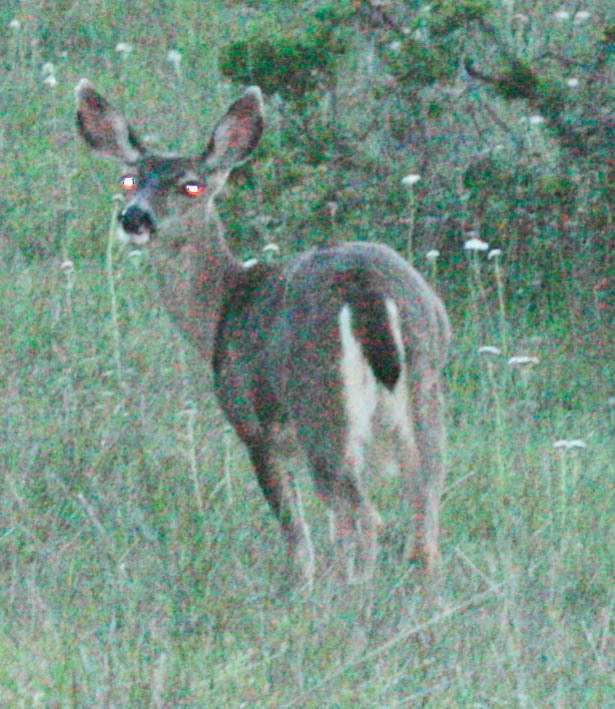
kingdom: Animalia
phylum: Chordata
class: Mammalia
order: Artiodactyla
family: Cervidae
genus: Odocoileus
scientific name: Odocoileus hemionus
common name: Mule deer
